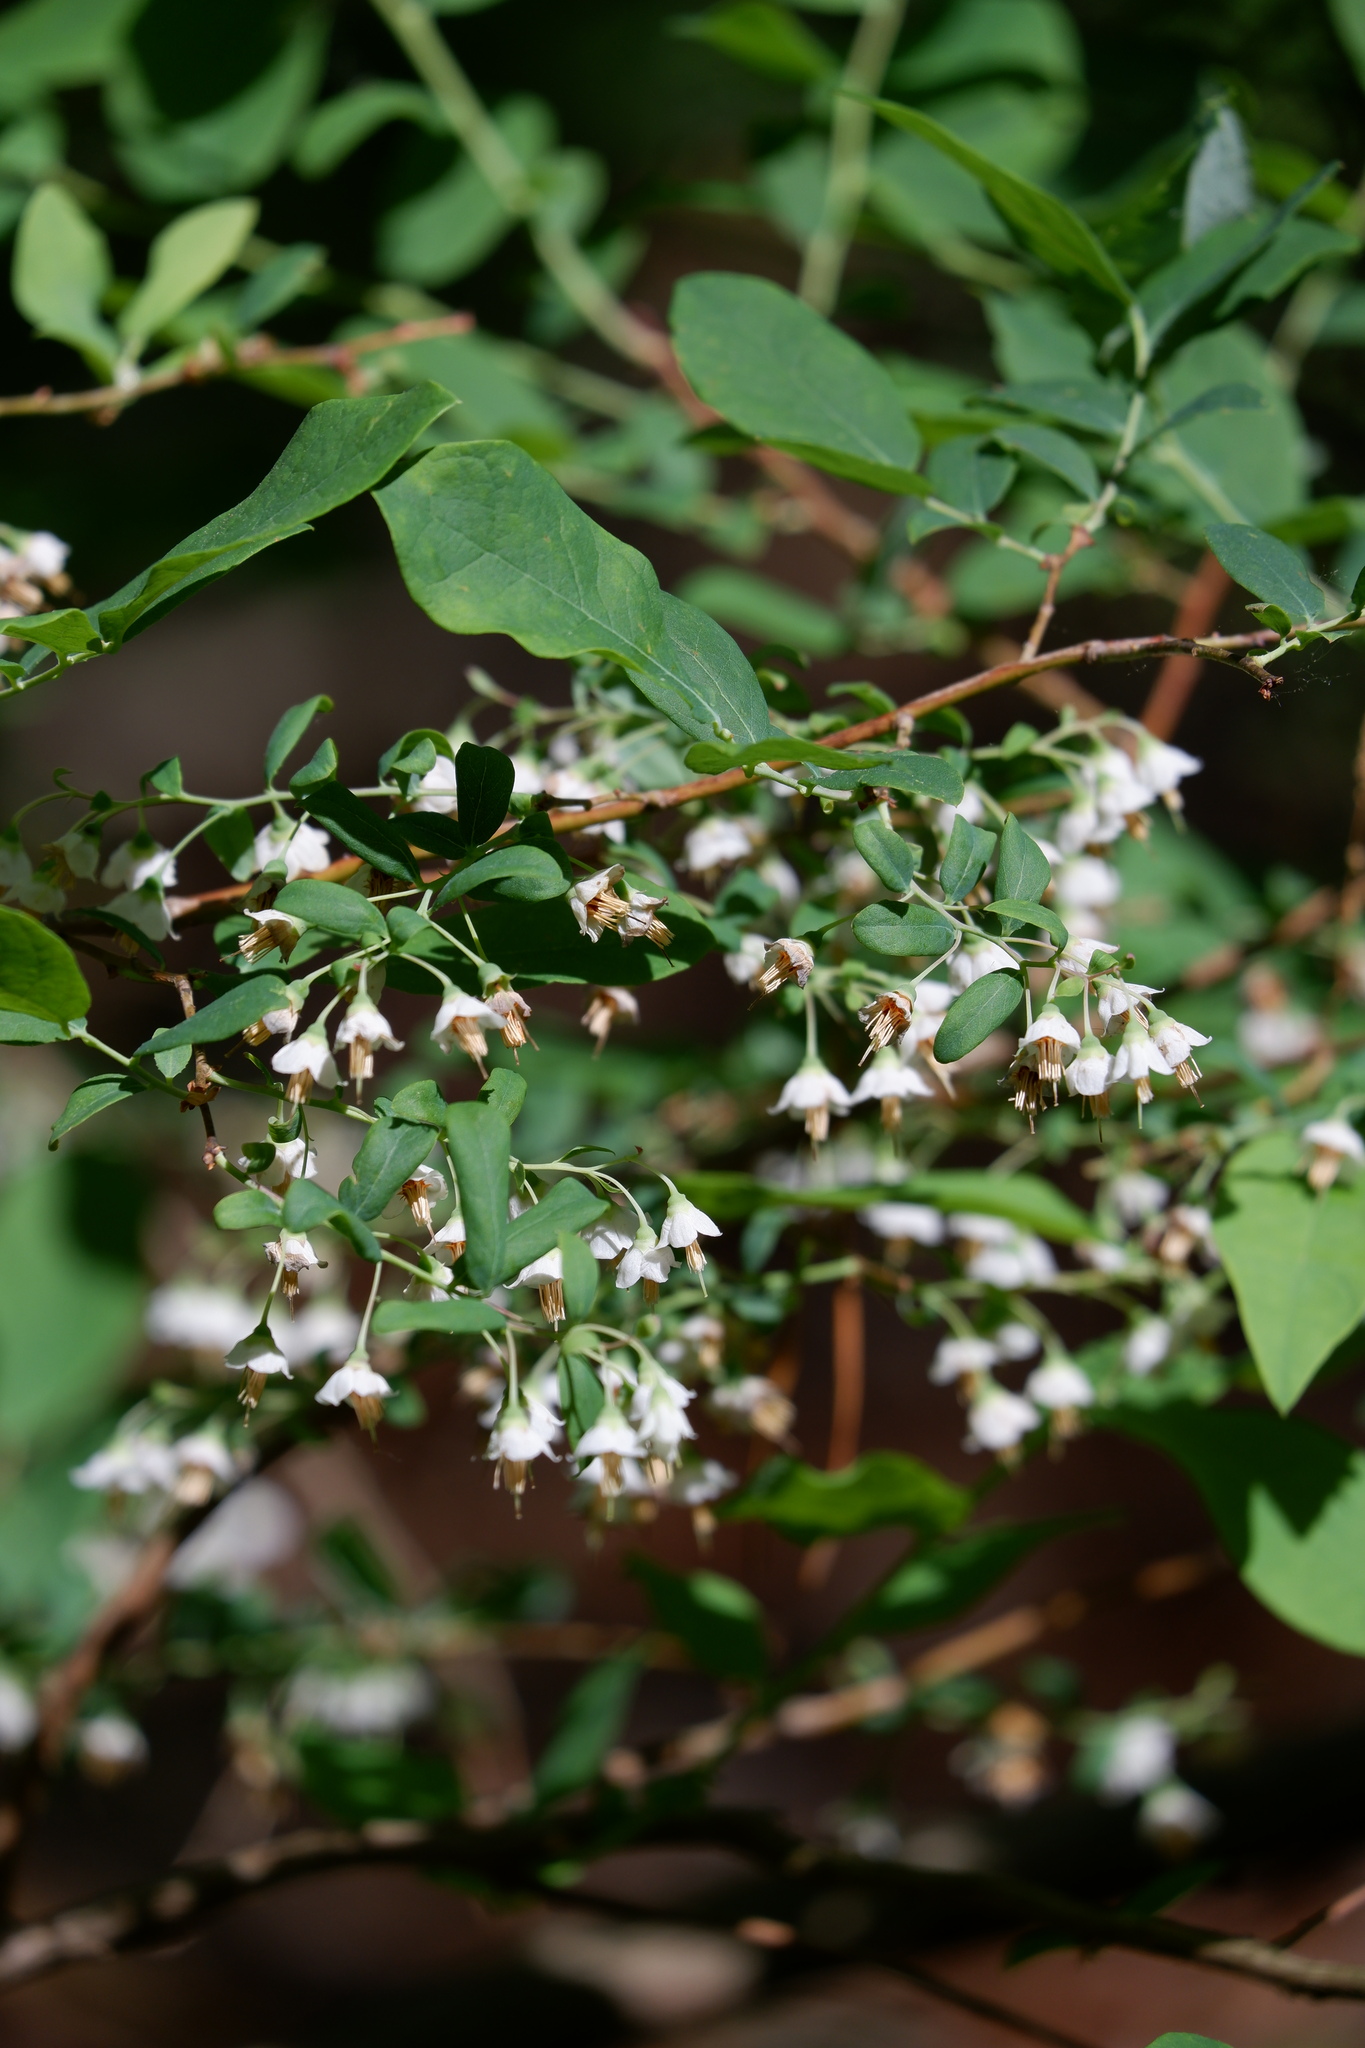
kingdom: Plantae
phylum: Tracheophyta
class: Magnoliopsida
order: Ericales
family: Ericaceae
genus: Vaccinium
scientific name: Vaccinium stamineum
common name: Deerberry
